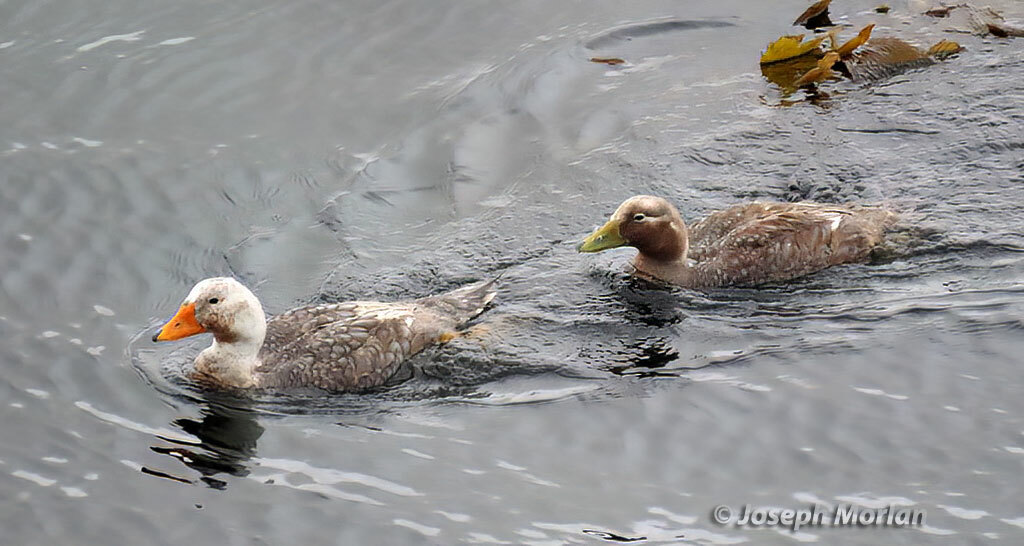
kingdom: Animalia
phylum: Chordata
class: Aves
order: Anseriformes
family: Anatidae
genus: Tachyeres
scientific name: Tachyeres brachypterus
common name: Falkland steamer duck
